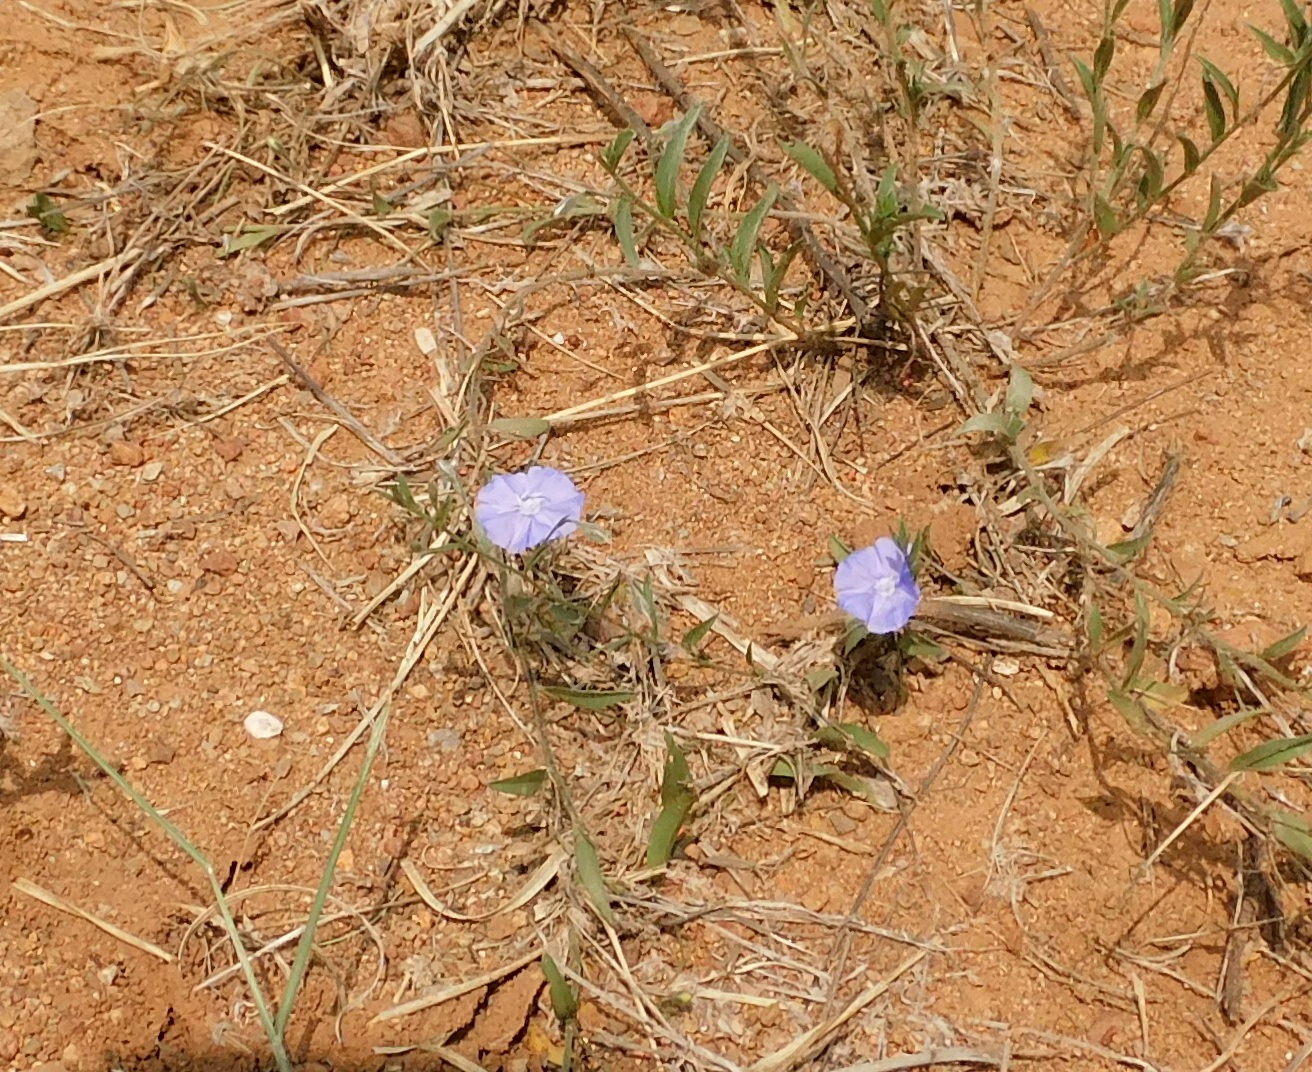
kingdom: Plantae
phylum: Tracheophyta
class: Magnoliopsida
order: Solanales
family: Convolvulaceae
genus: Evolvulus
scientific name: Evolvulus arizonicus
